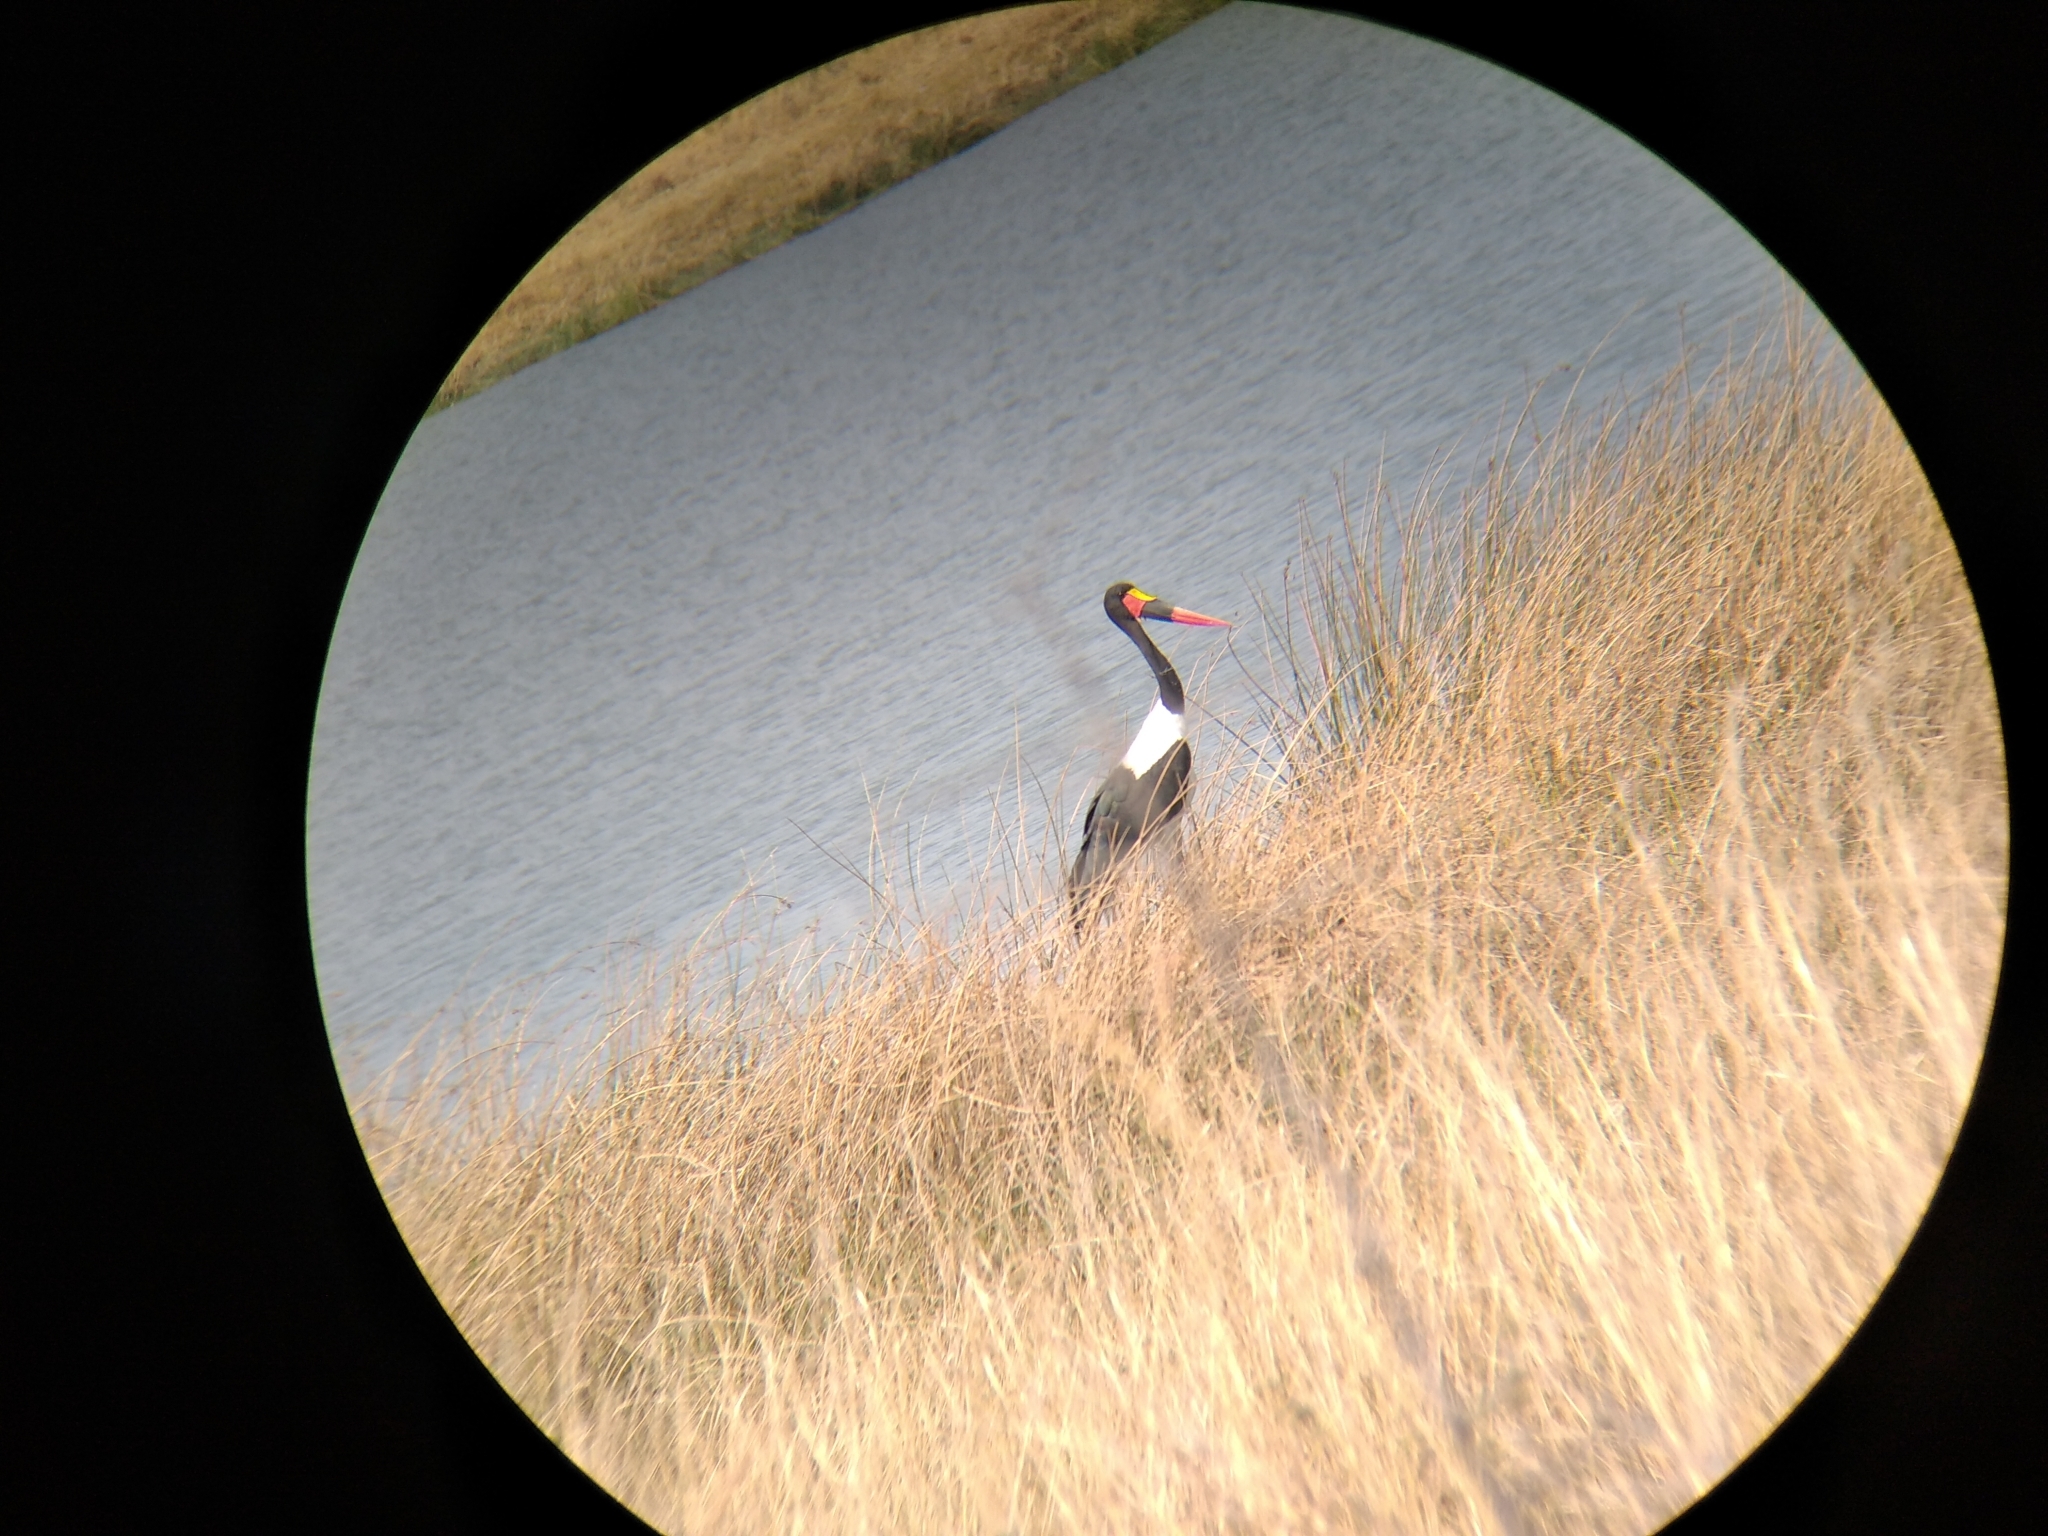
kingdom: Animalia
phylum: Chordata
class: Aves
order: Ciconiiformes
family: Ciconiidae
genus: Ephippiorhynchus
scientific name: Ephippiorhynchus senegalensis
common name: Saddle-billed stork
